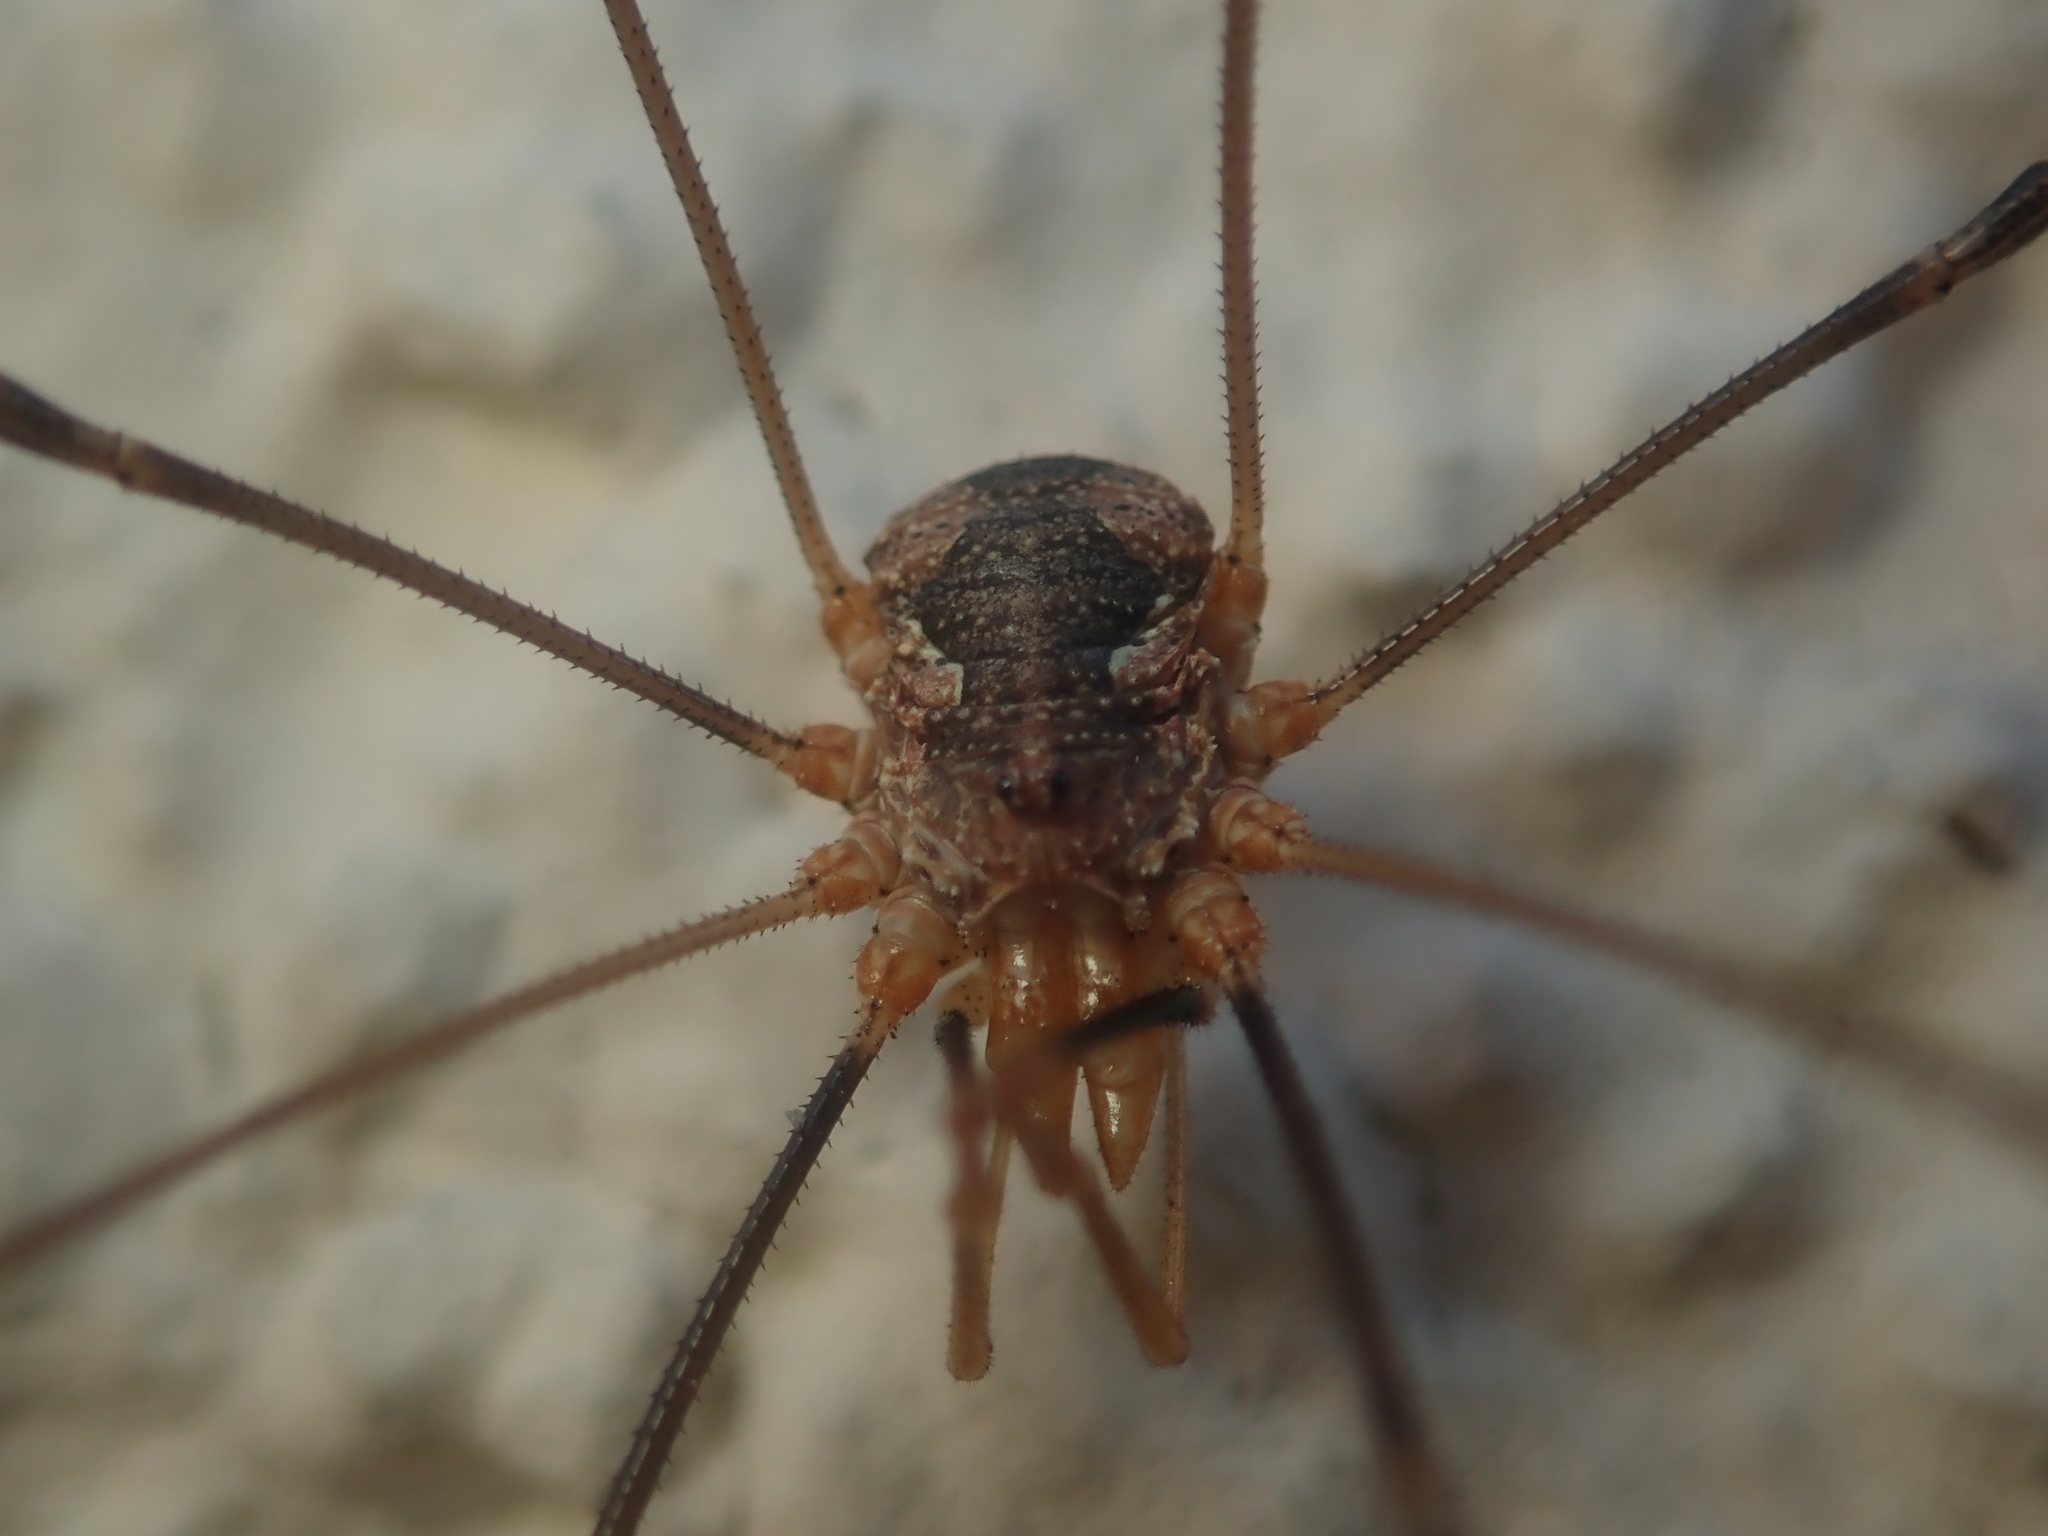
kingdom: Animalia
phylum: Arthropoda
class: Arachnida
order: Opiliones
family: Phalangiidae
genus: Phalangium
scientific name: Phalangium opilio
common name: Daddy longleg
